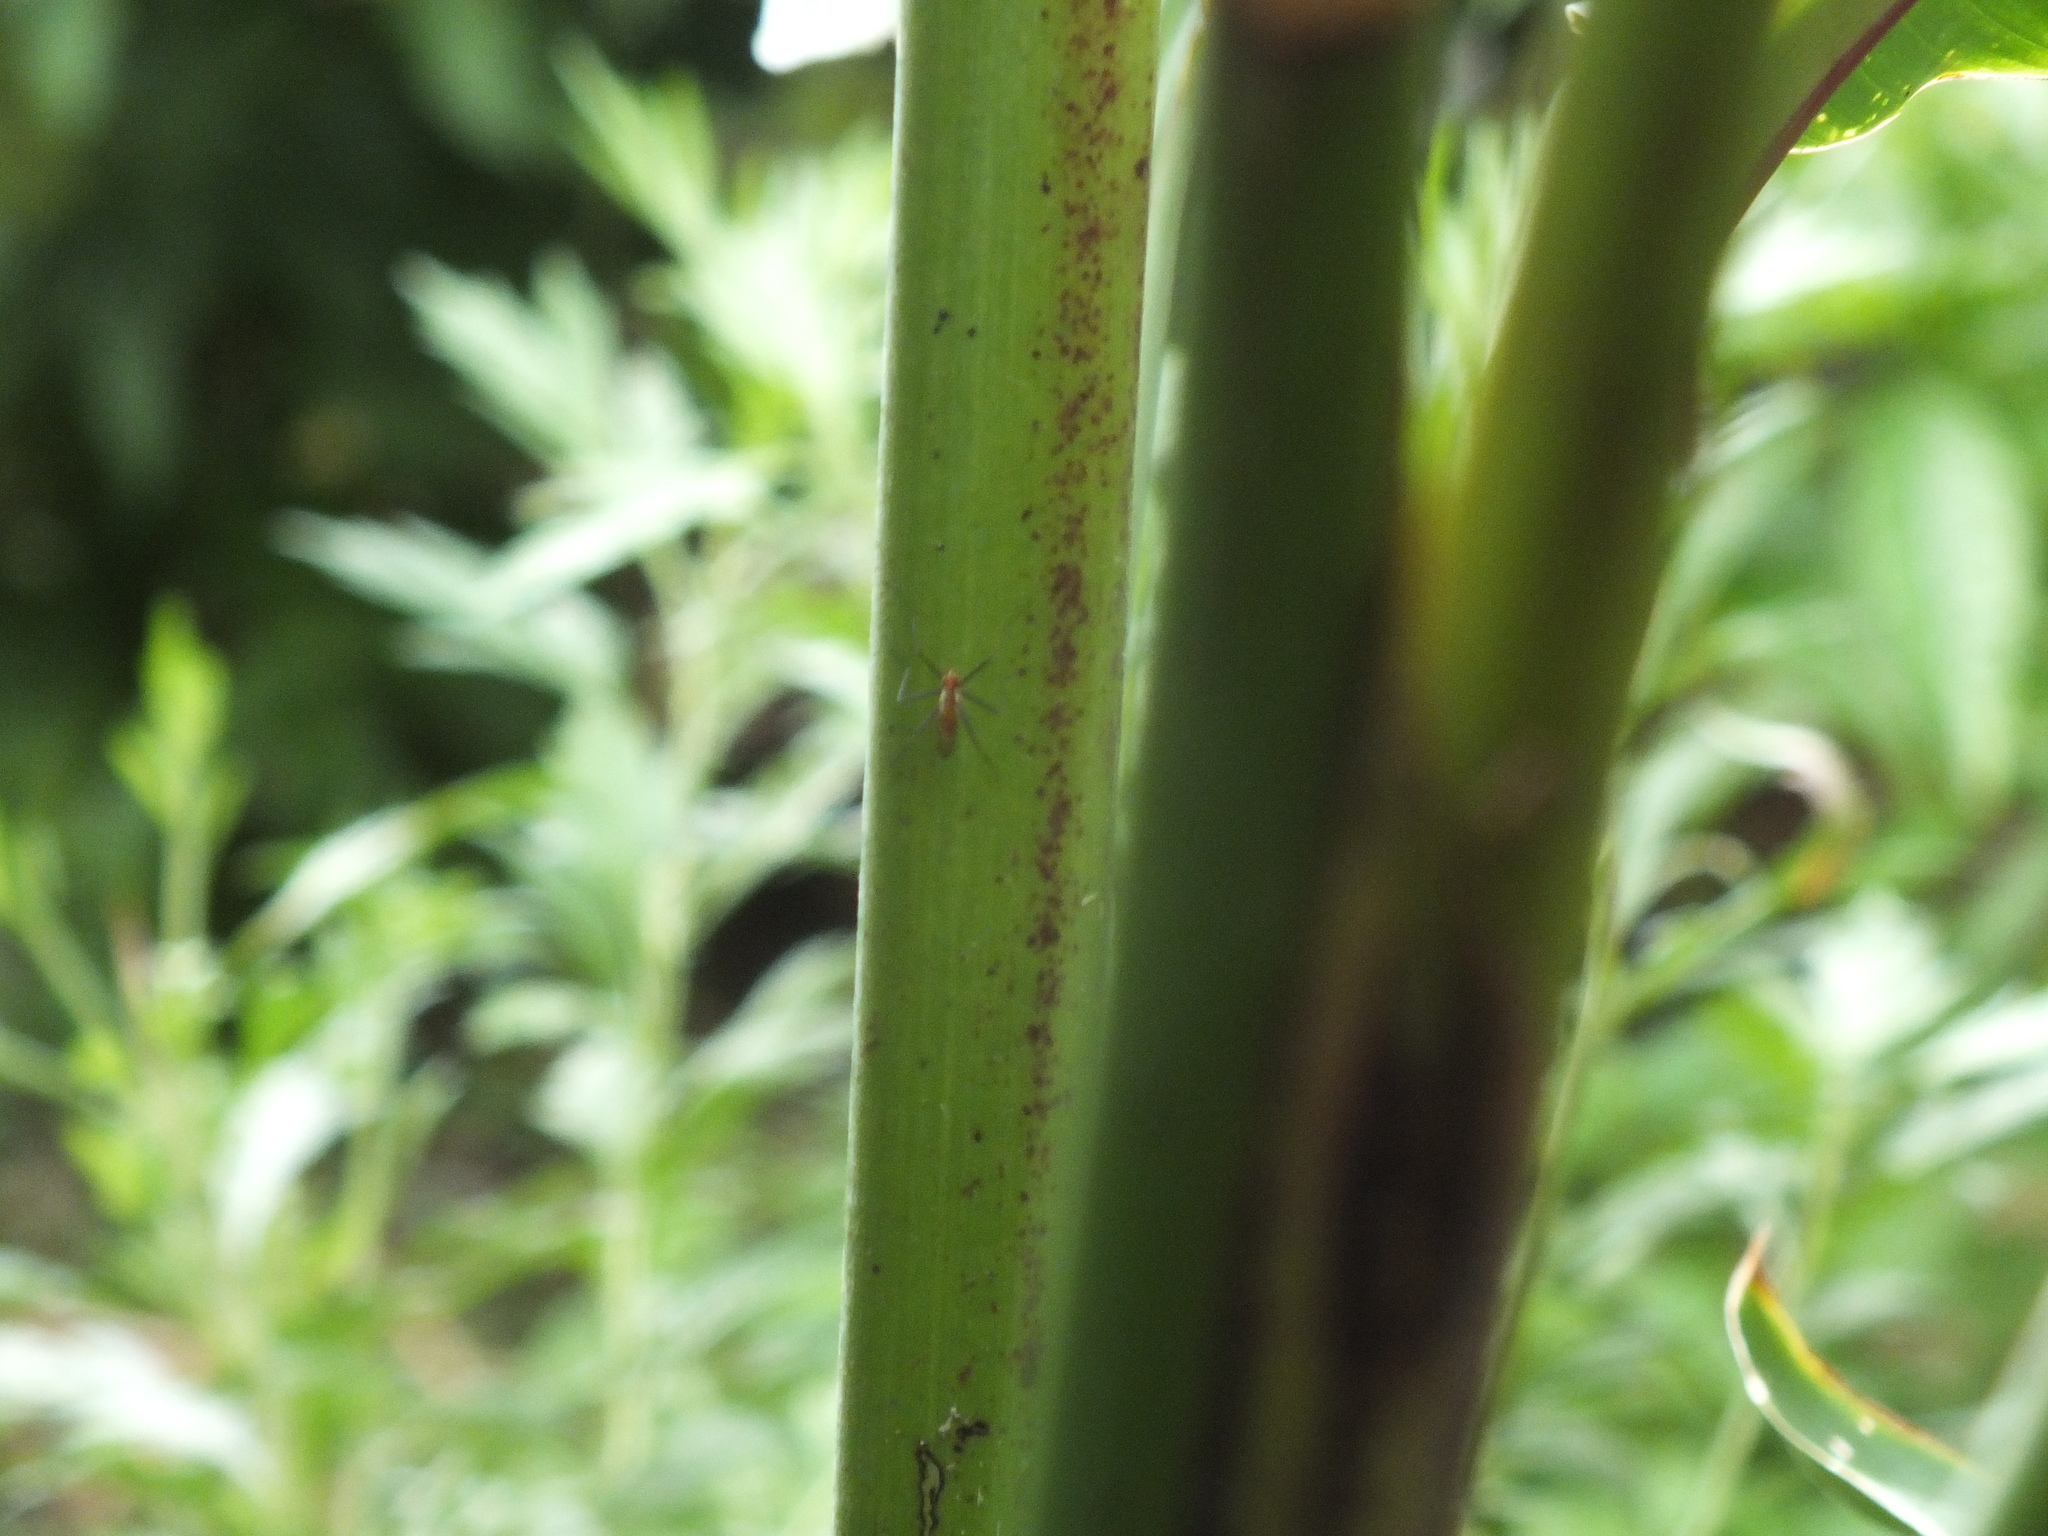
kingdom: Animalia
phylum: Arthropoda
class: Insecta
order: Diptera
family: Neriidae
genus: Telostylinus
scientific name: Telostylinus lineolatus
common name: Banana stalk fly
